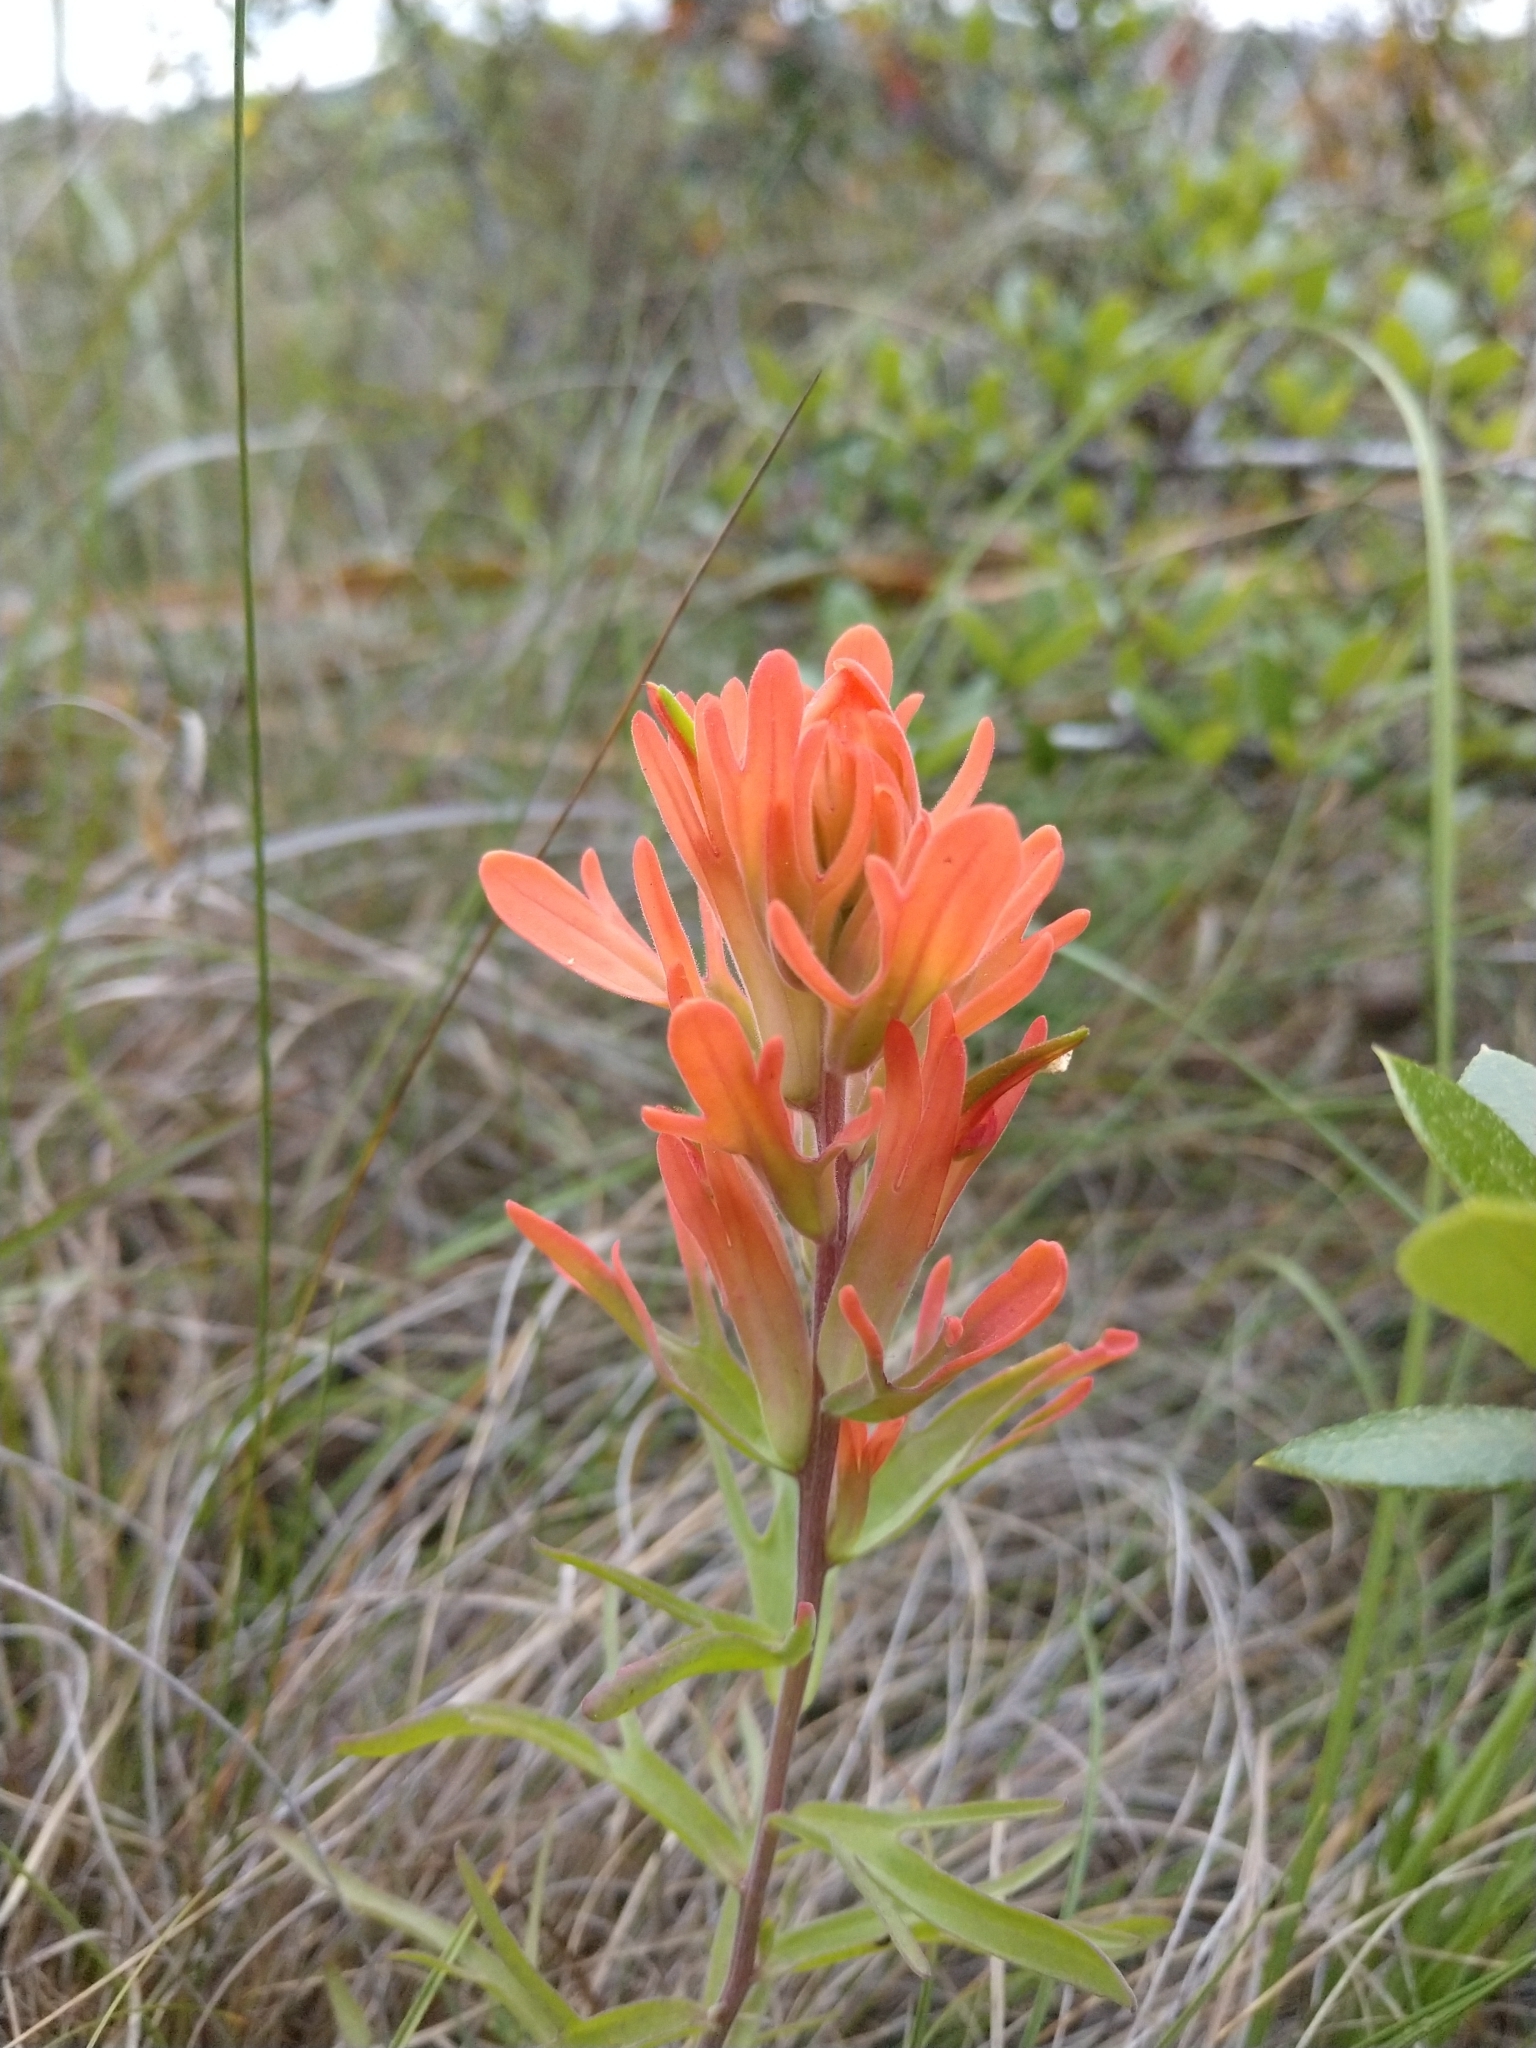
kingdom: Plantae
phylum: Tracheophyta
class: Magnoliopsida
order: Lamiales
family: Orobanchaceae
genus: Castilleja
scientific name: Castilleja lindheimeri
